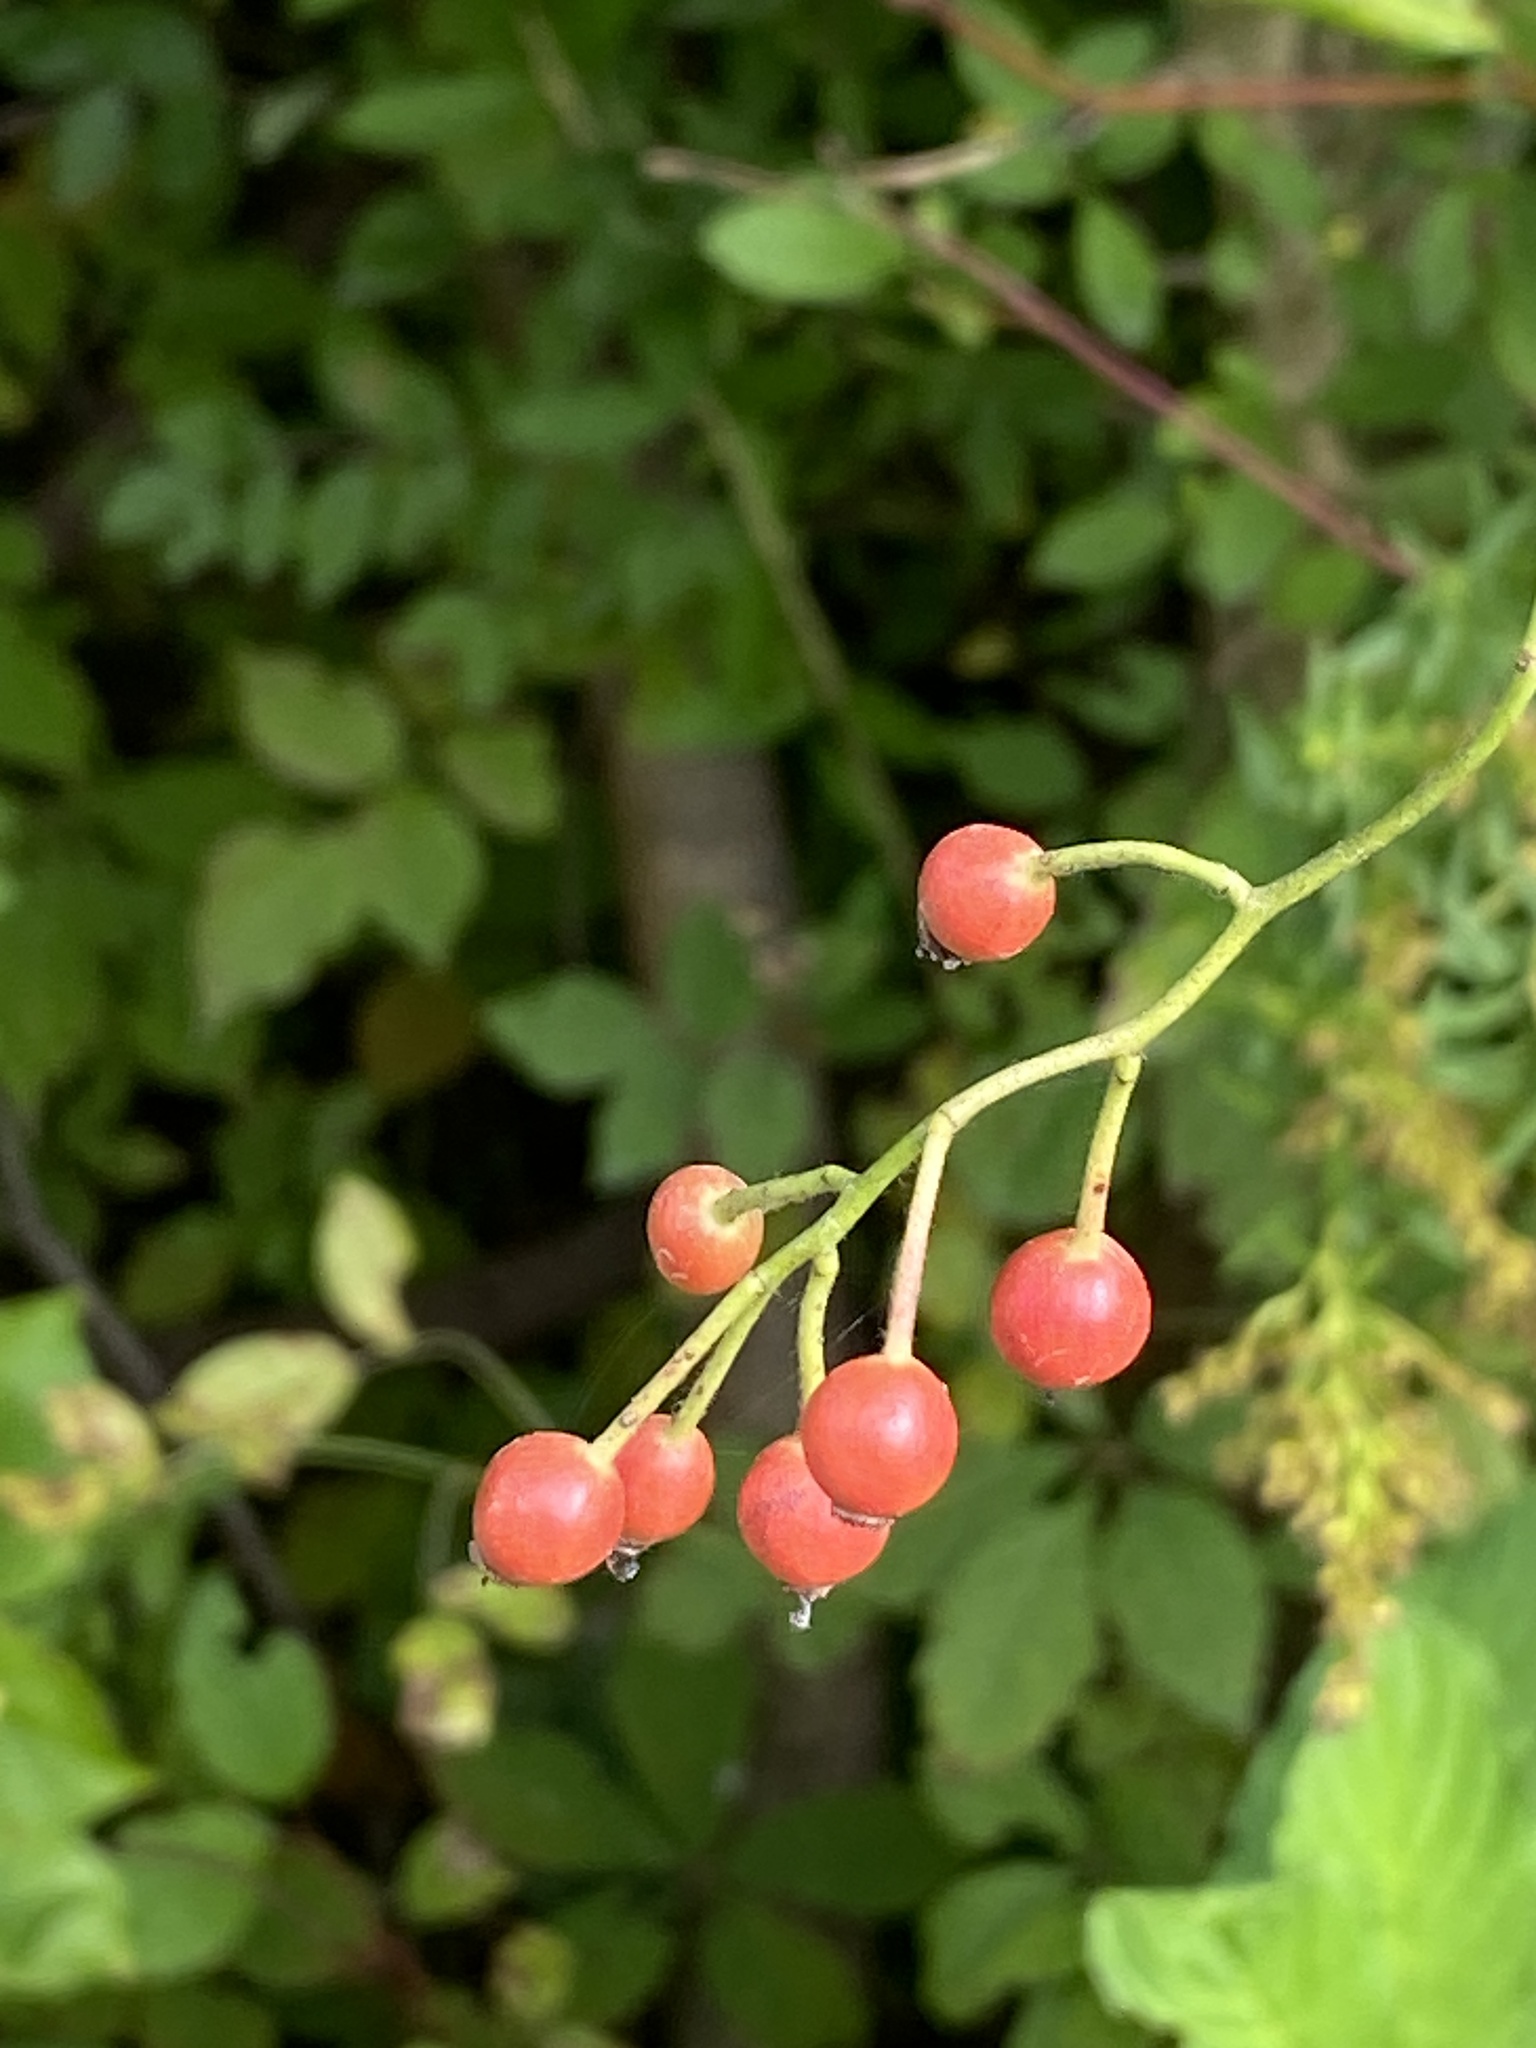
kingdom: Plantae
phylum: Tracheophyta
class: Magnoliopsida
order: Rosales
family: Rosaceae
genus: Rosa
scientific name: Rosa multiflora
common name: Multiflora rose
